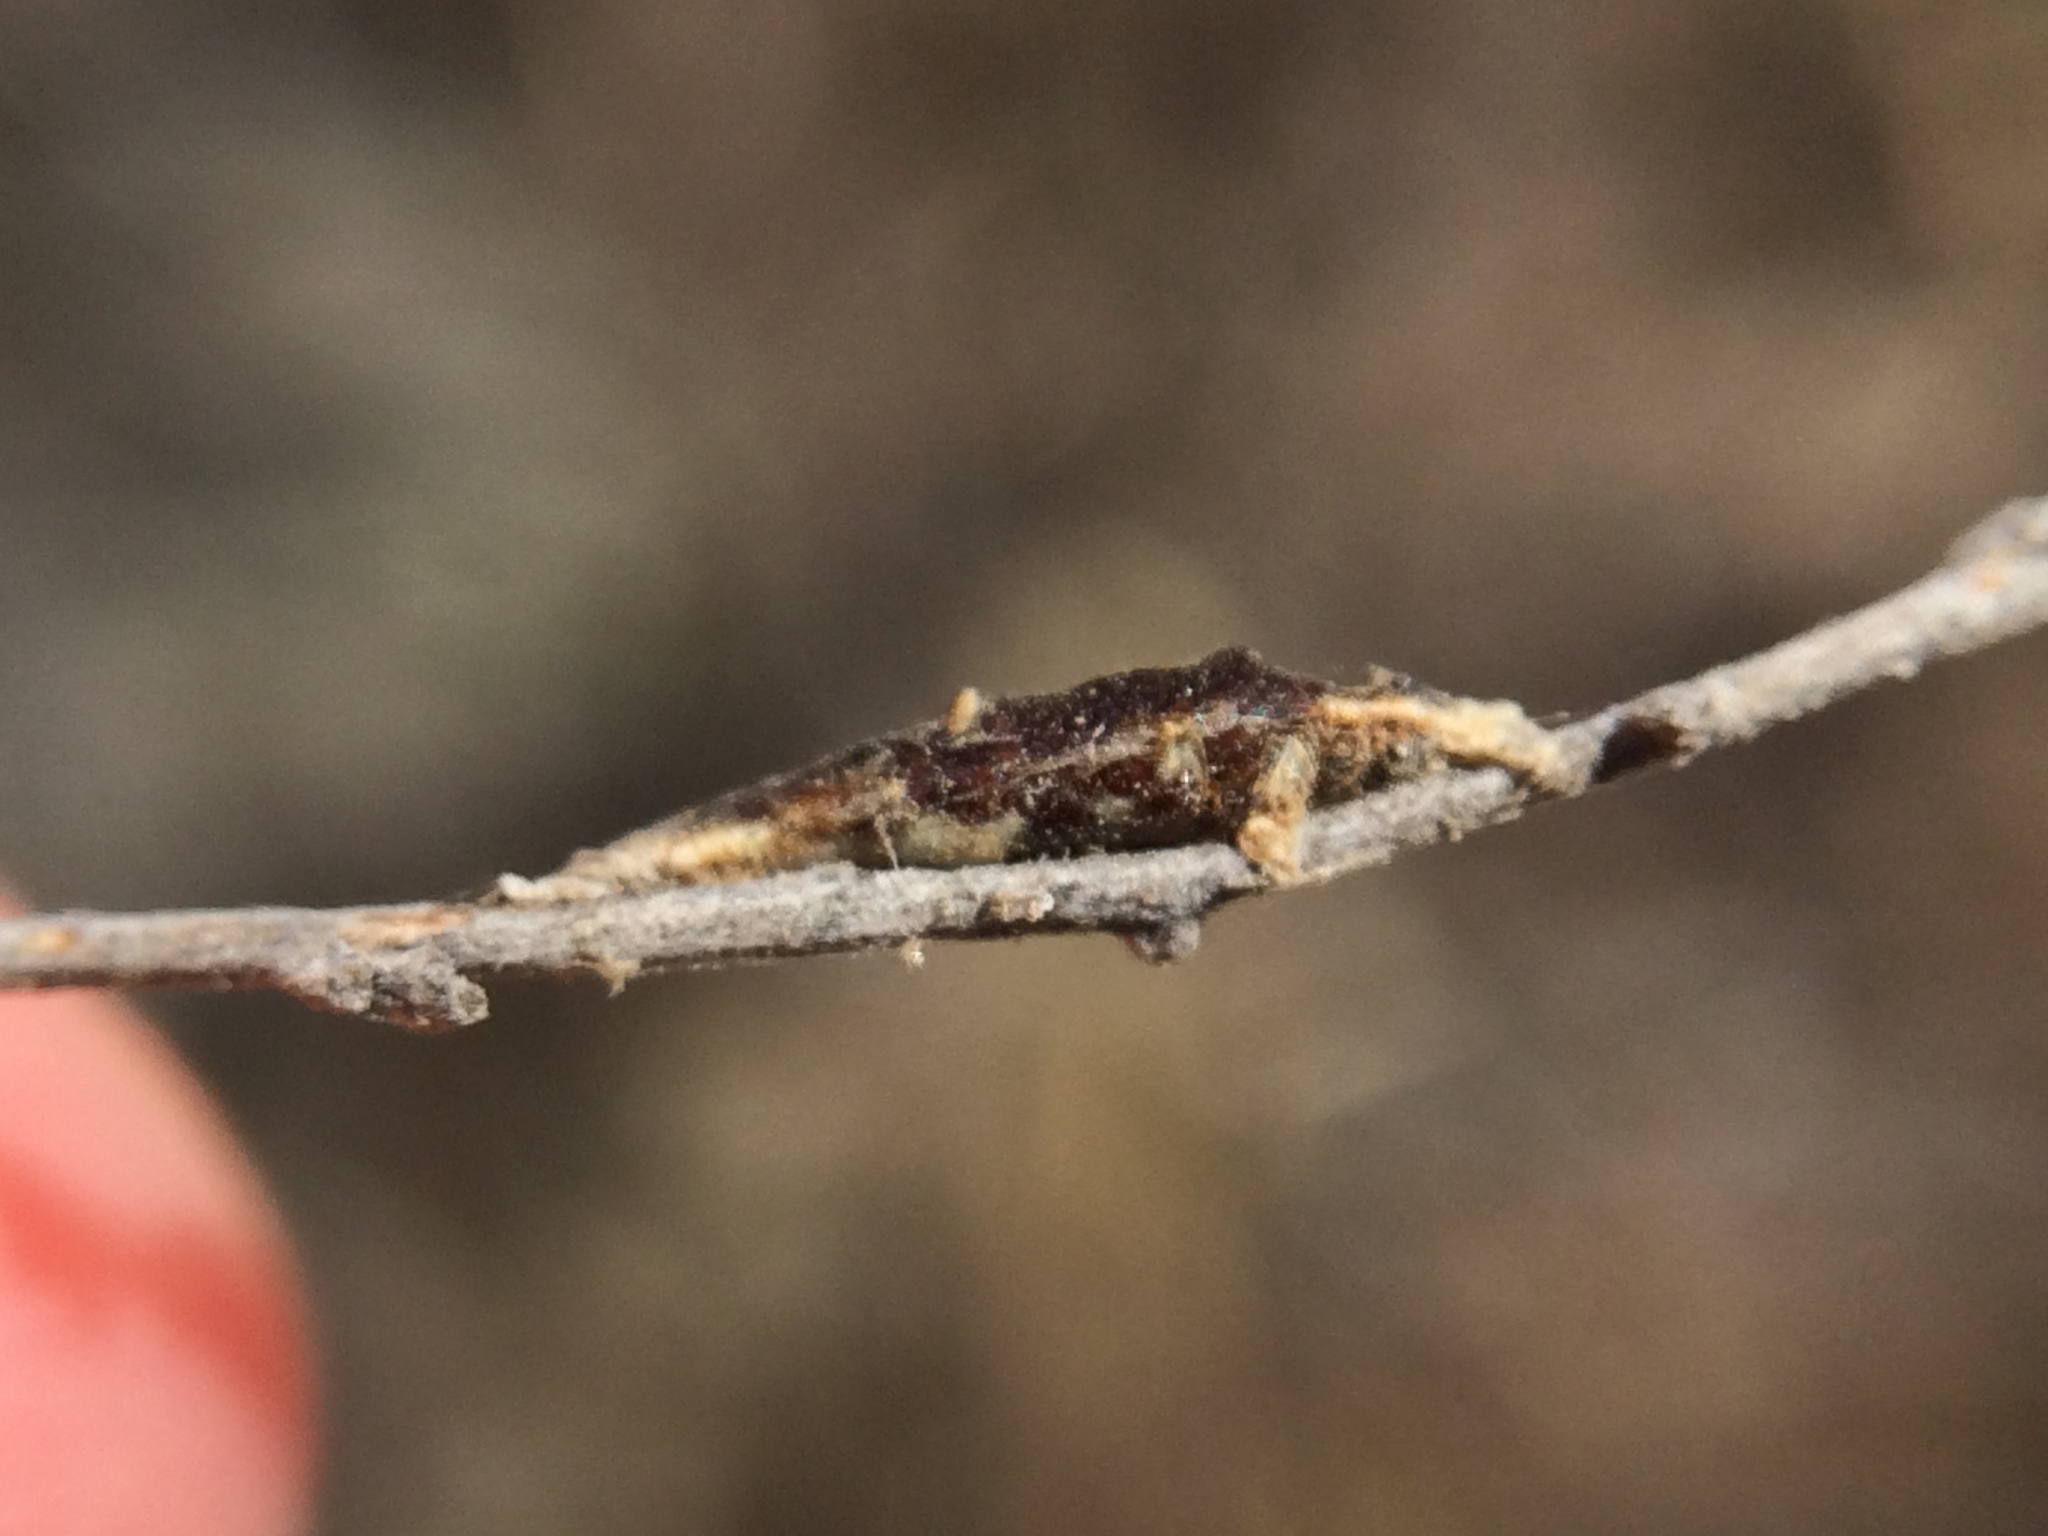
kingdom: Animalia
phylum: Arthropoda
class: Insecta
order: Hymenoptera
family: Braconidae
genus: Aleiodes
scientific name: Aleiodes
